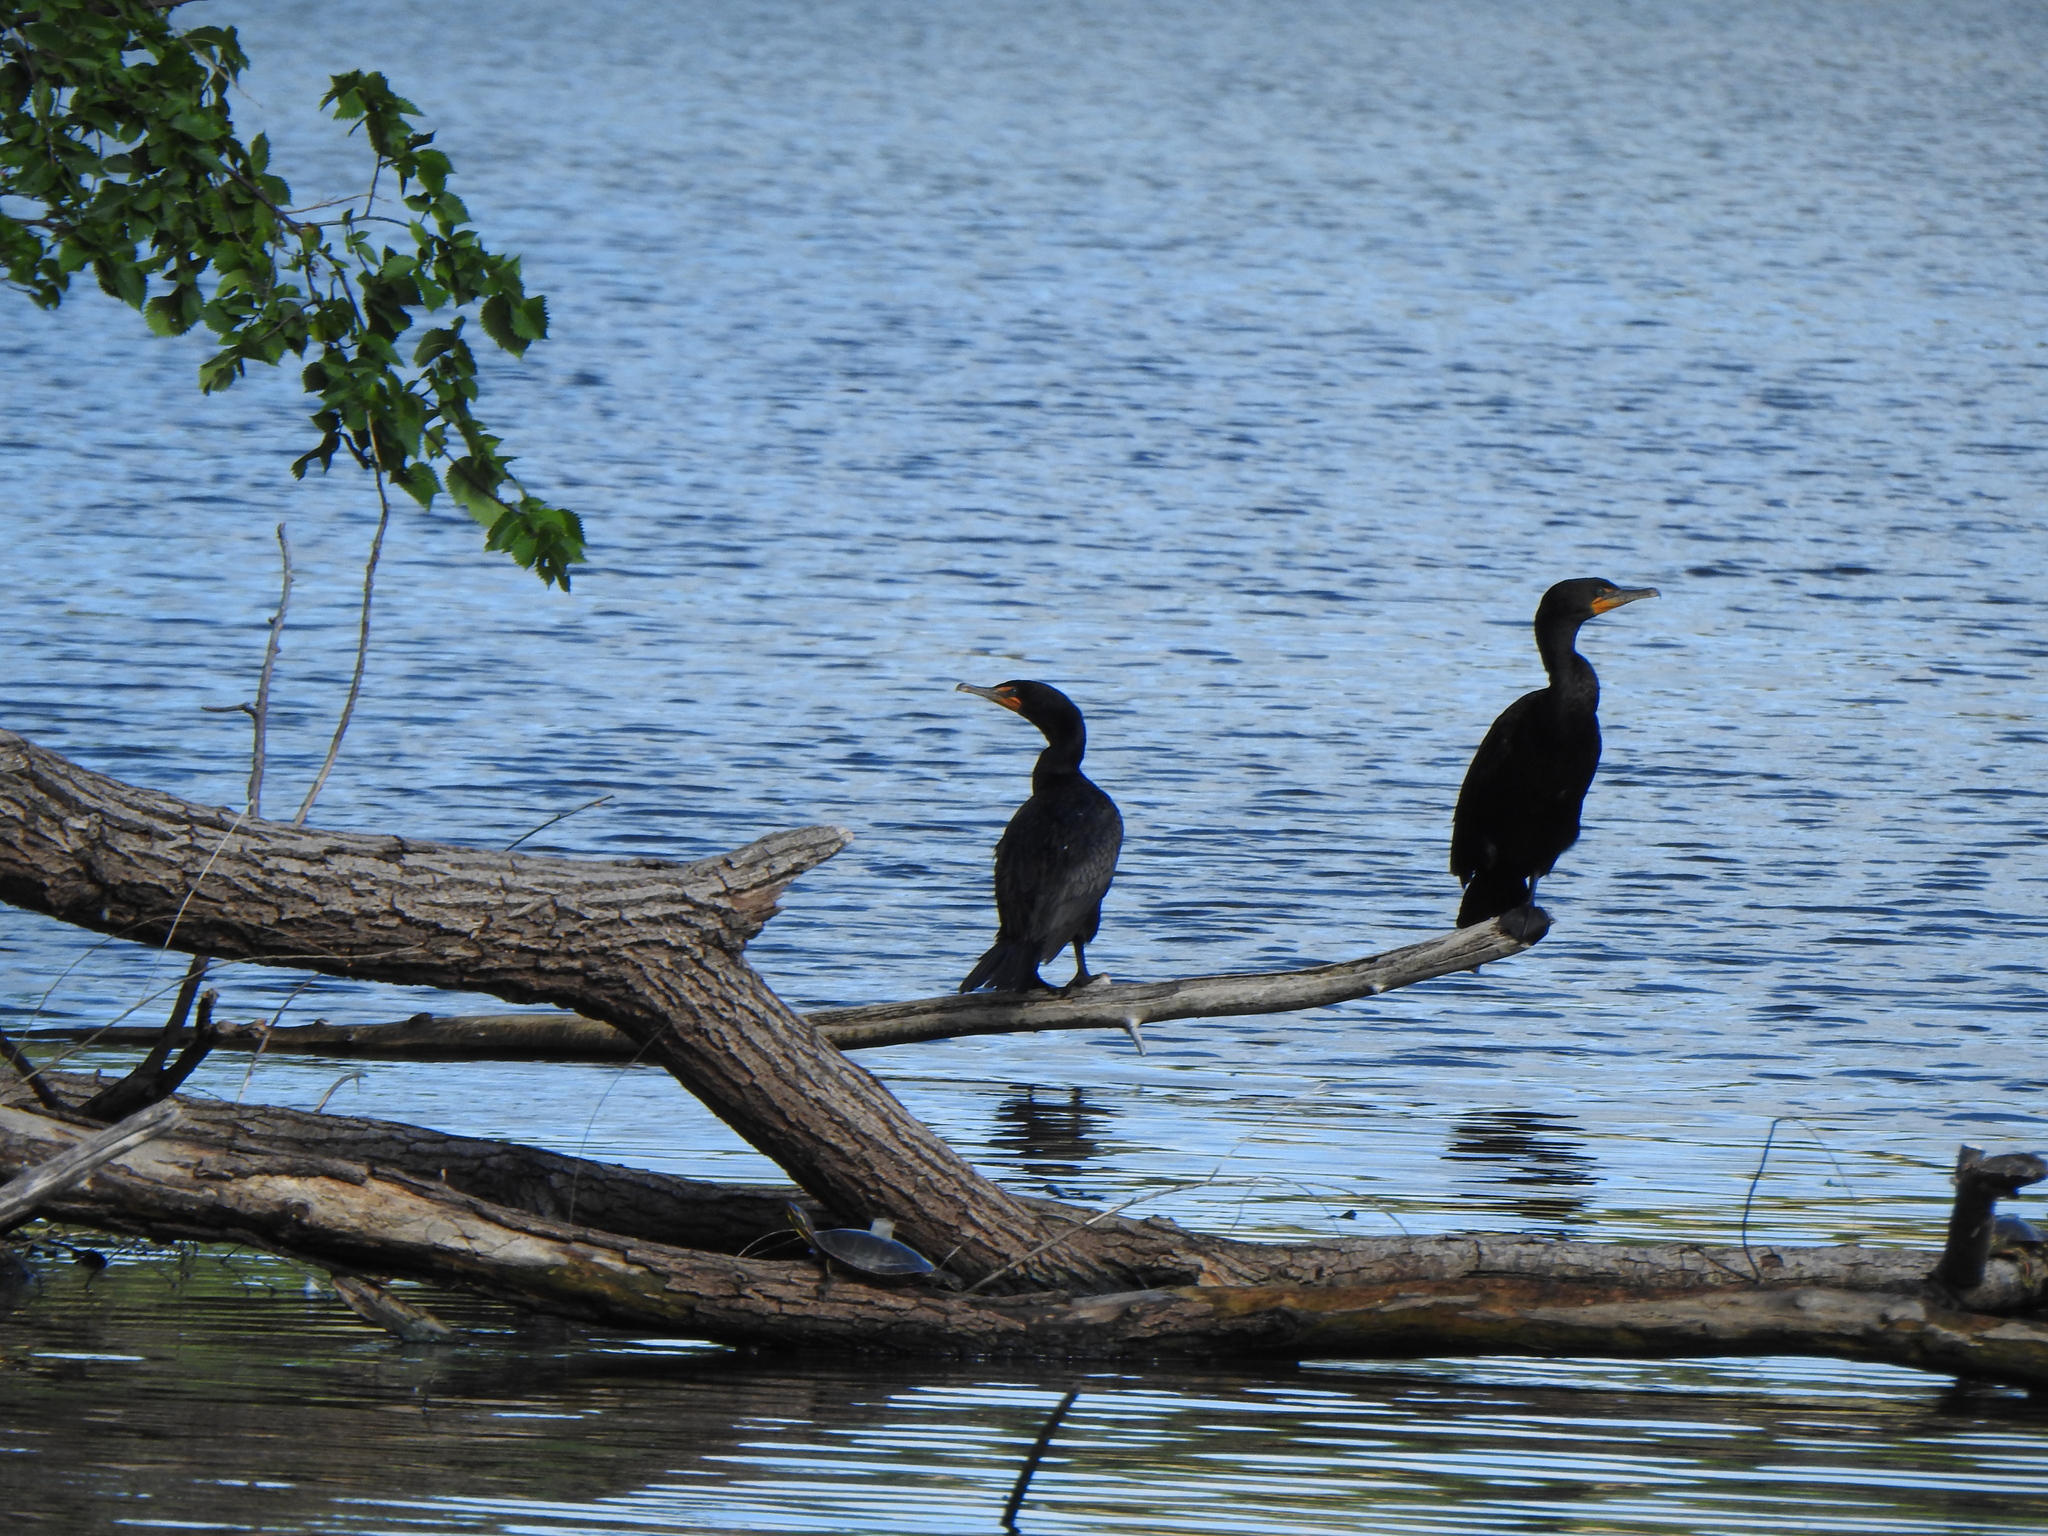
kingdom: Animalia
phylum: Chordata
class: Aves
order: Suliformes
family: Phalacrocoracidae
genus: Phalacrocorax
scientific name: Phalacrocorax auritus
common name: Double-crested cormorant
